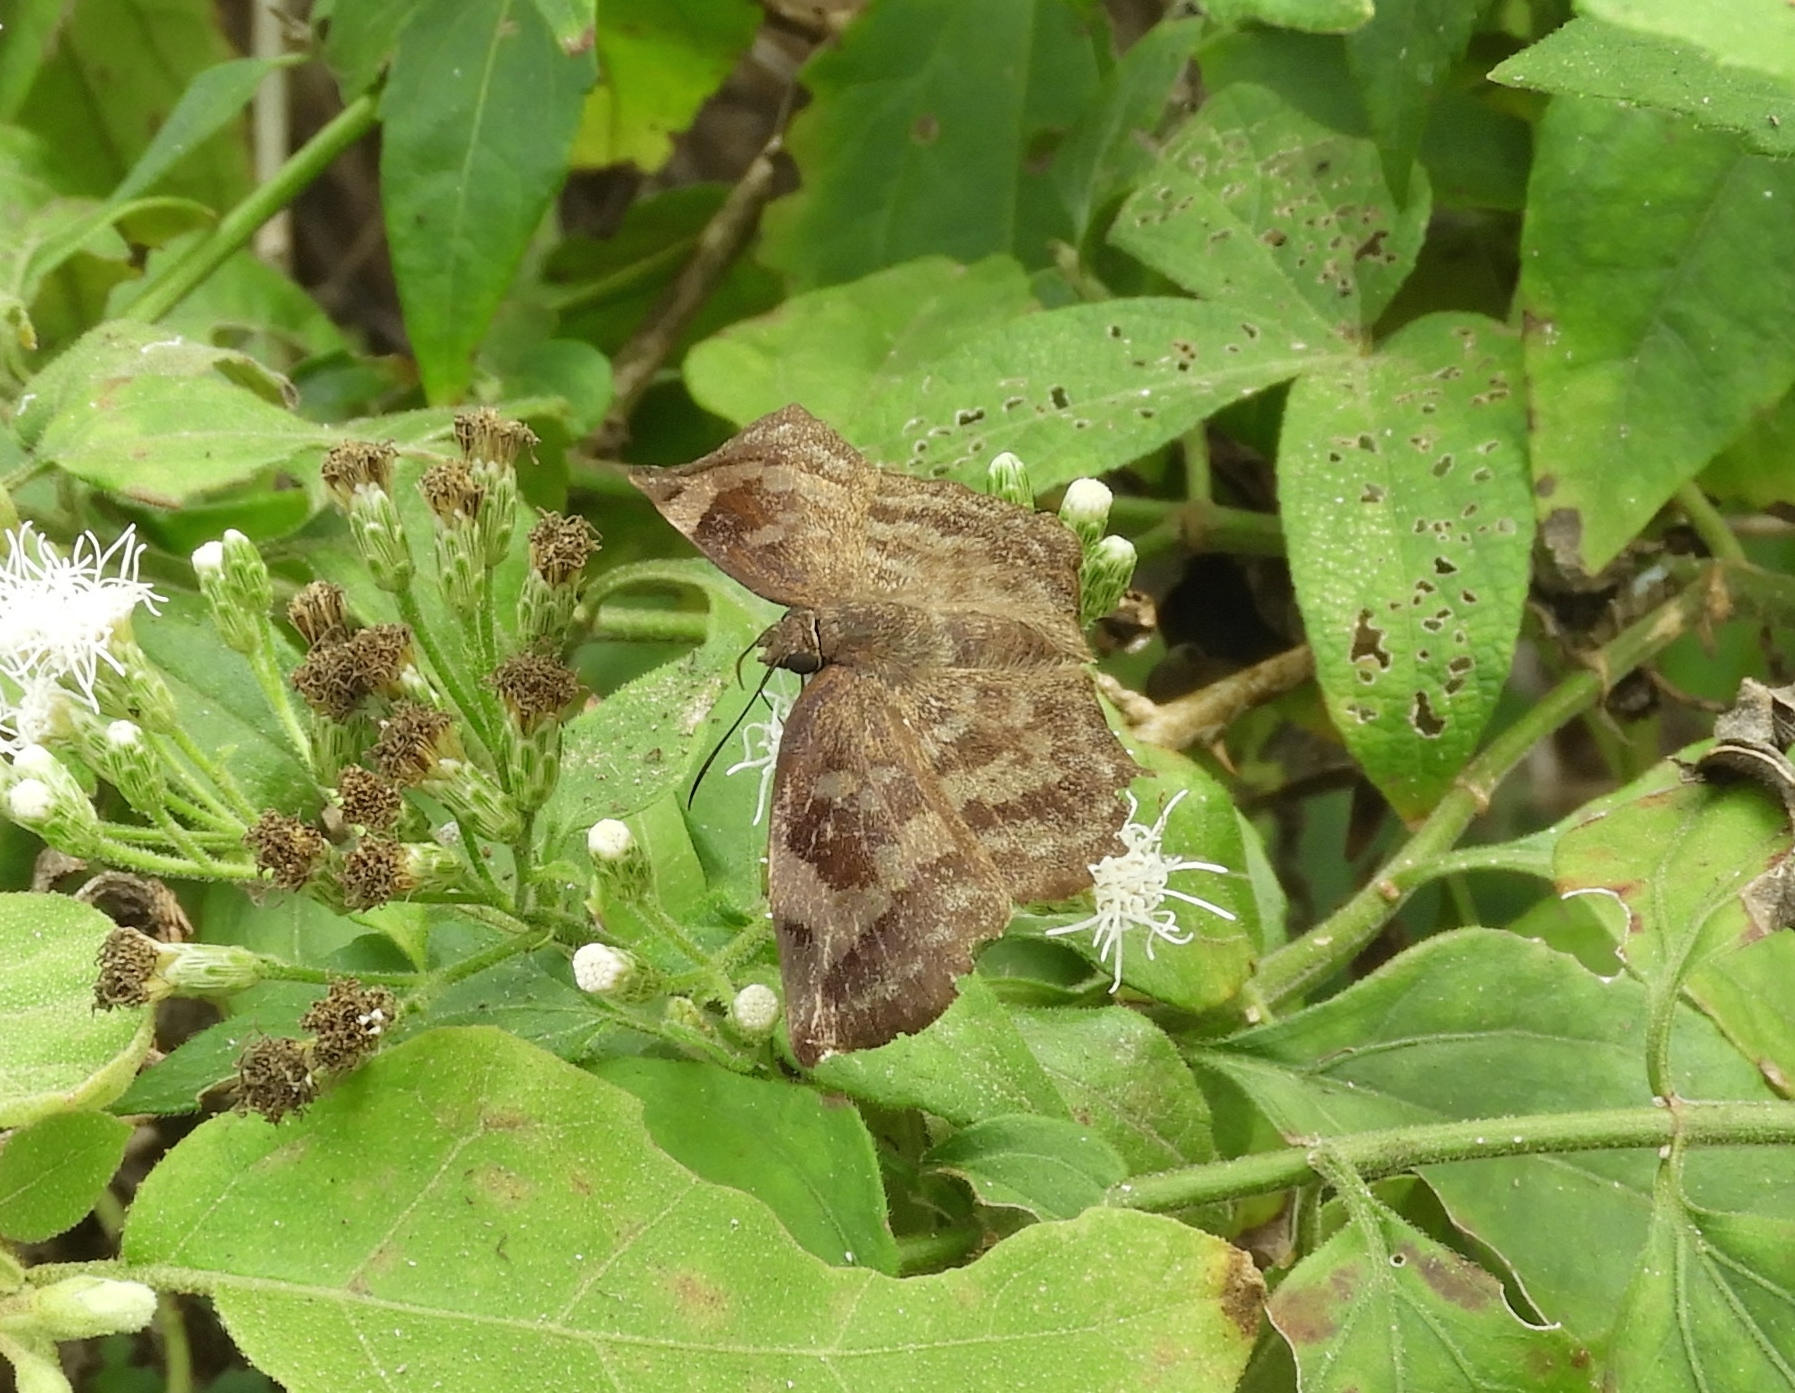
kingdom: Animalia
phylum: Arthropoda
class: Insecta
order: Lepidoptera
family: Hesperiidae
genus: Achlyodes
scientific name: Achlyodes
